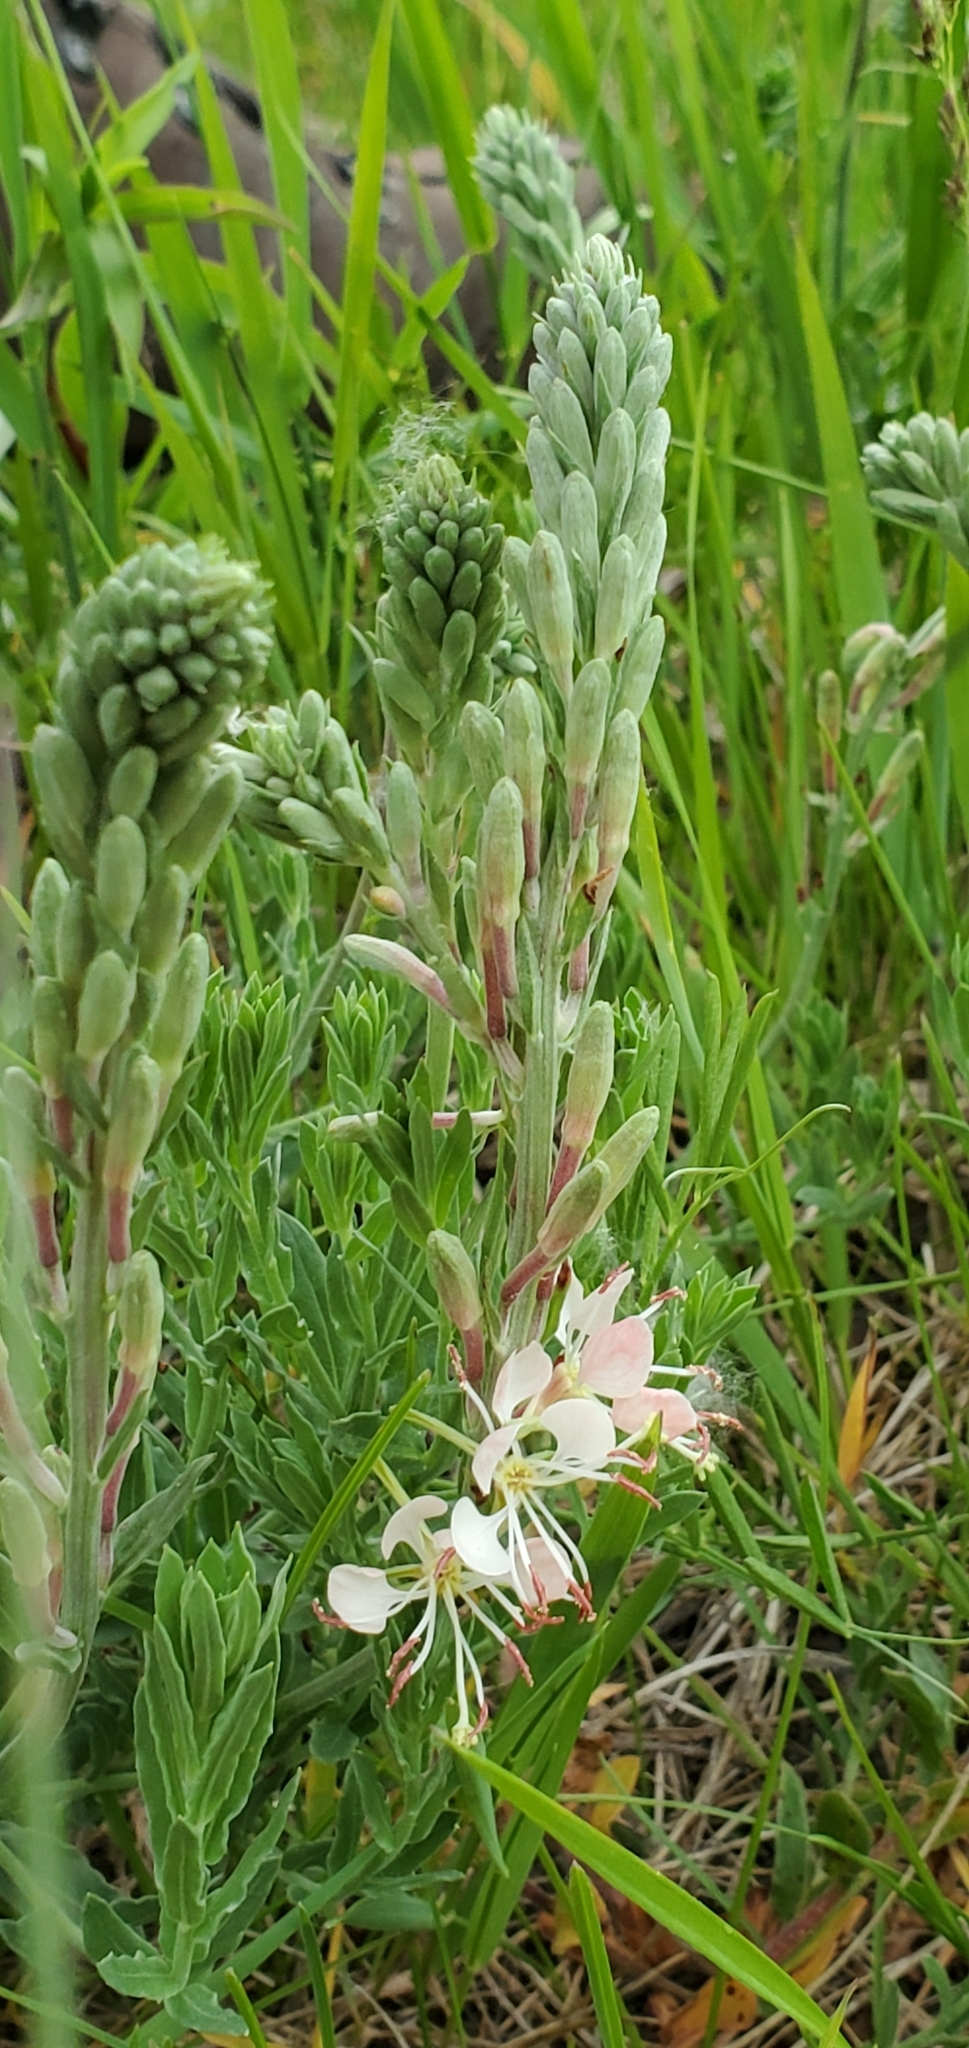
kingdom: Plantae
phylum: Tracheophyta
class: Magnoliopsida
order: Myrtales
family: Onagraceae
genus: Oenothera
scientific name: Oenothera suffrutescens
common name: Scarlet beeblossom
